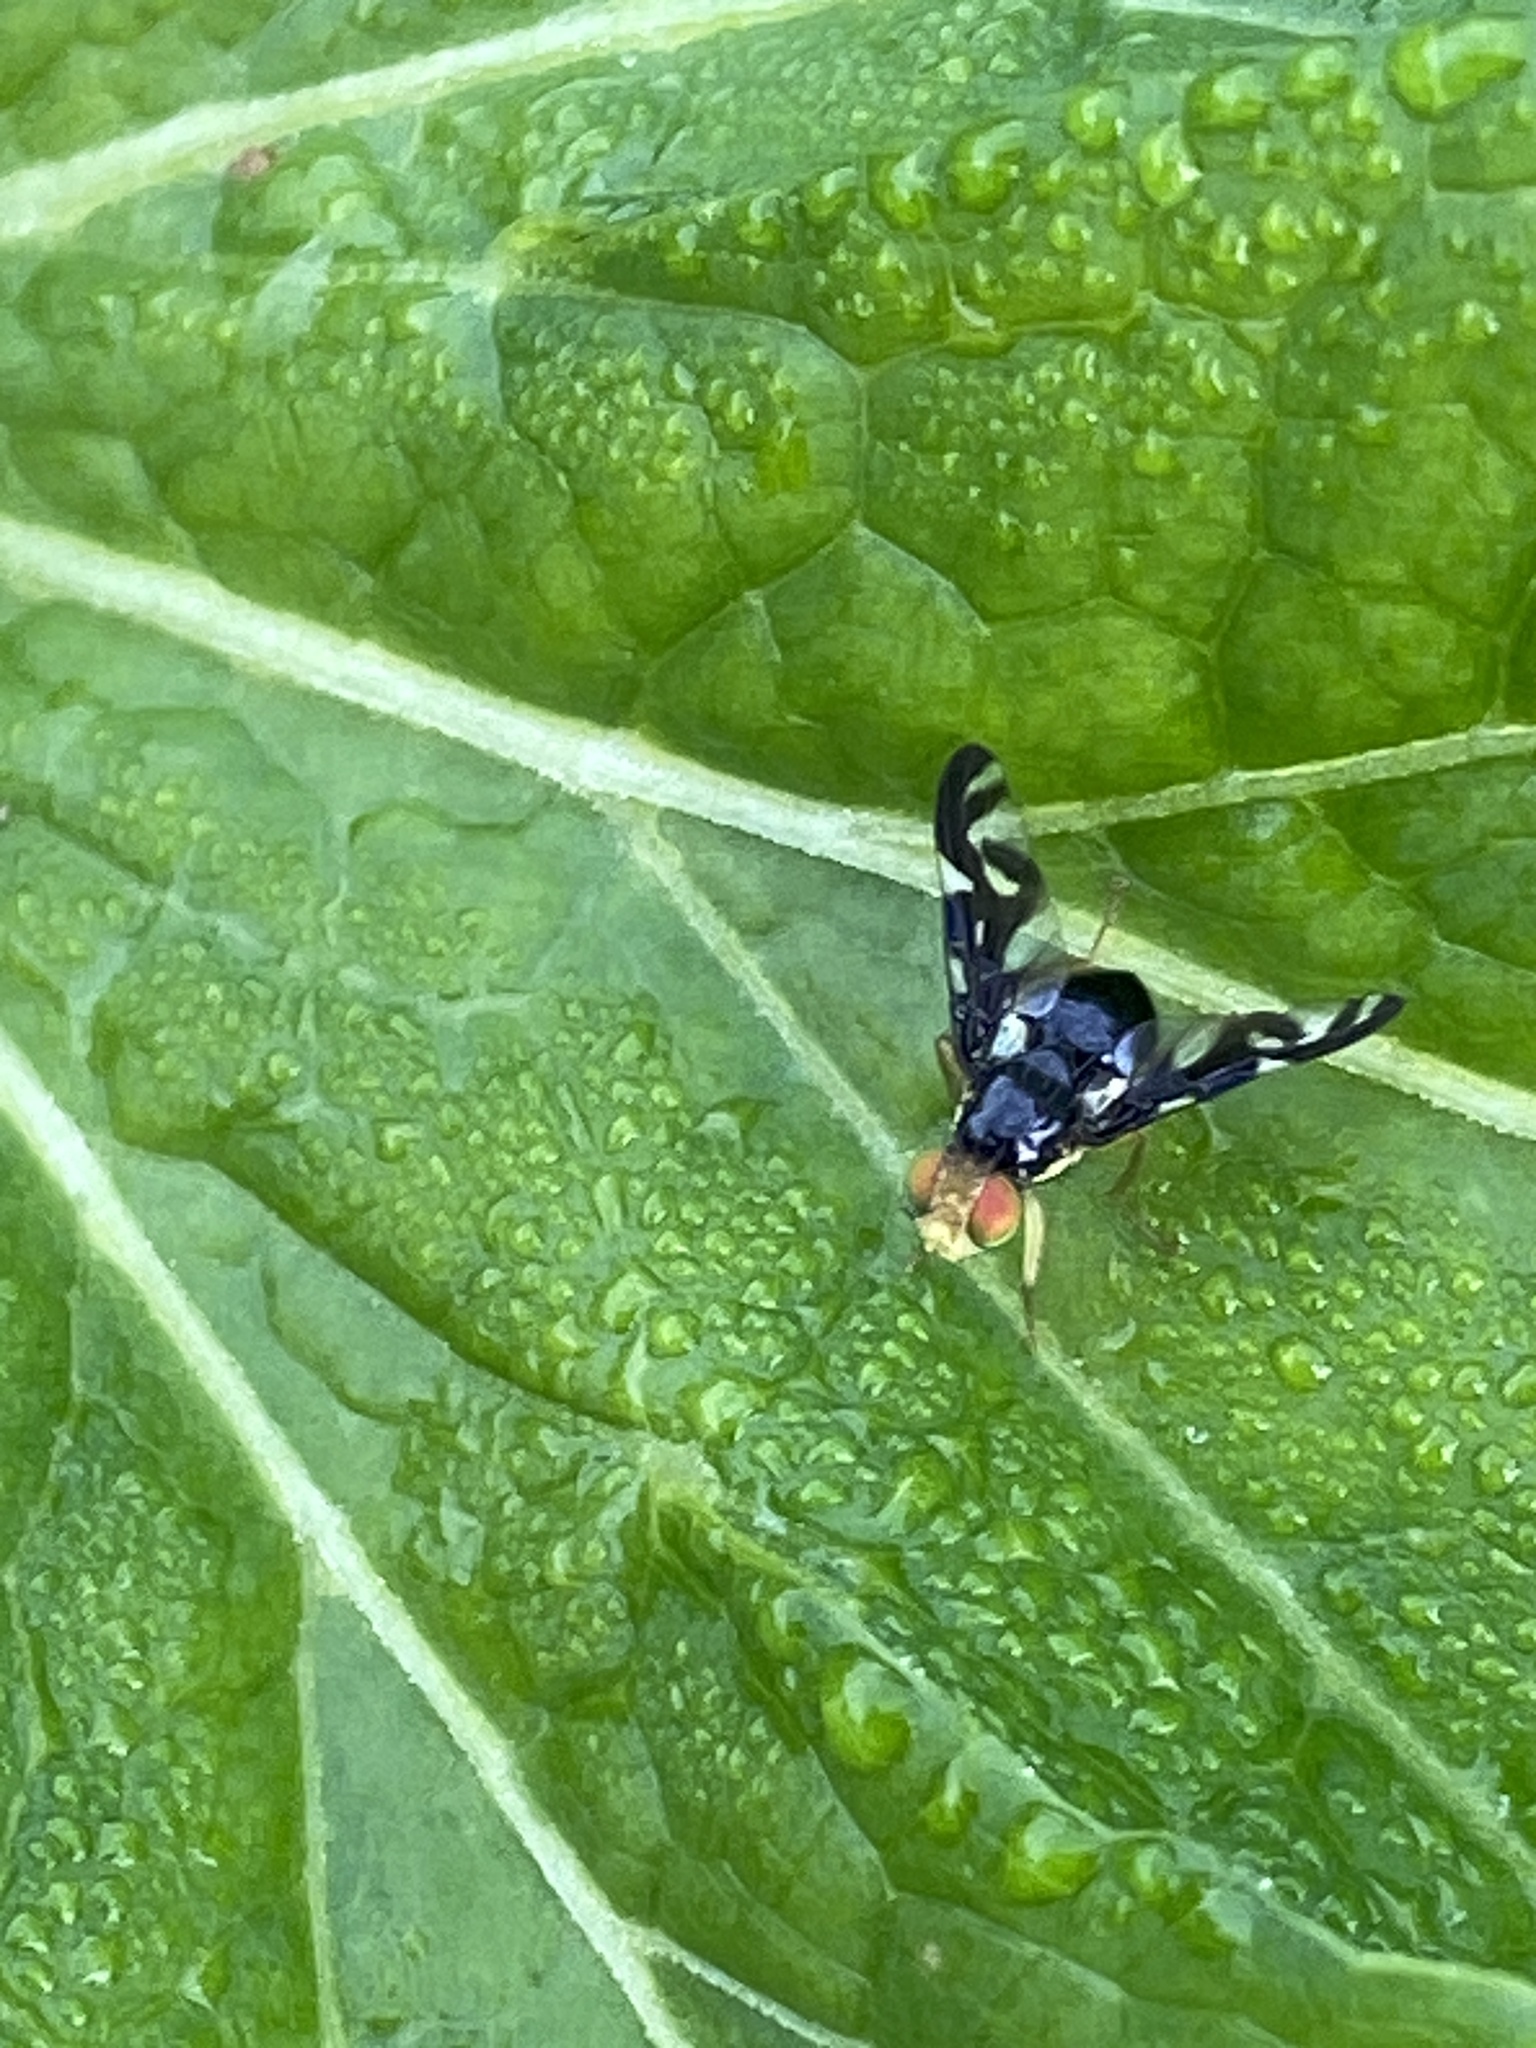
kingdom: Animalia
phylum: Arthropoda
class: Insecta
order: Diptera
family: Tephritidae
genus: Euleia
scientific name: Euleia heraclei
